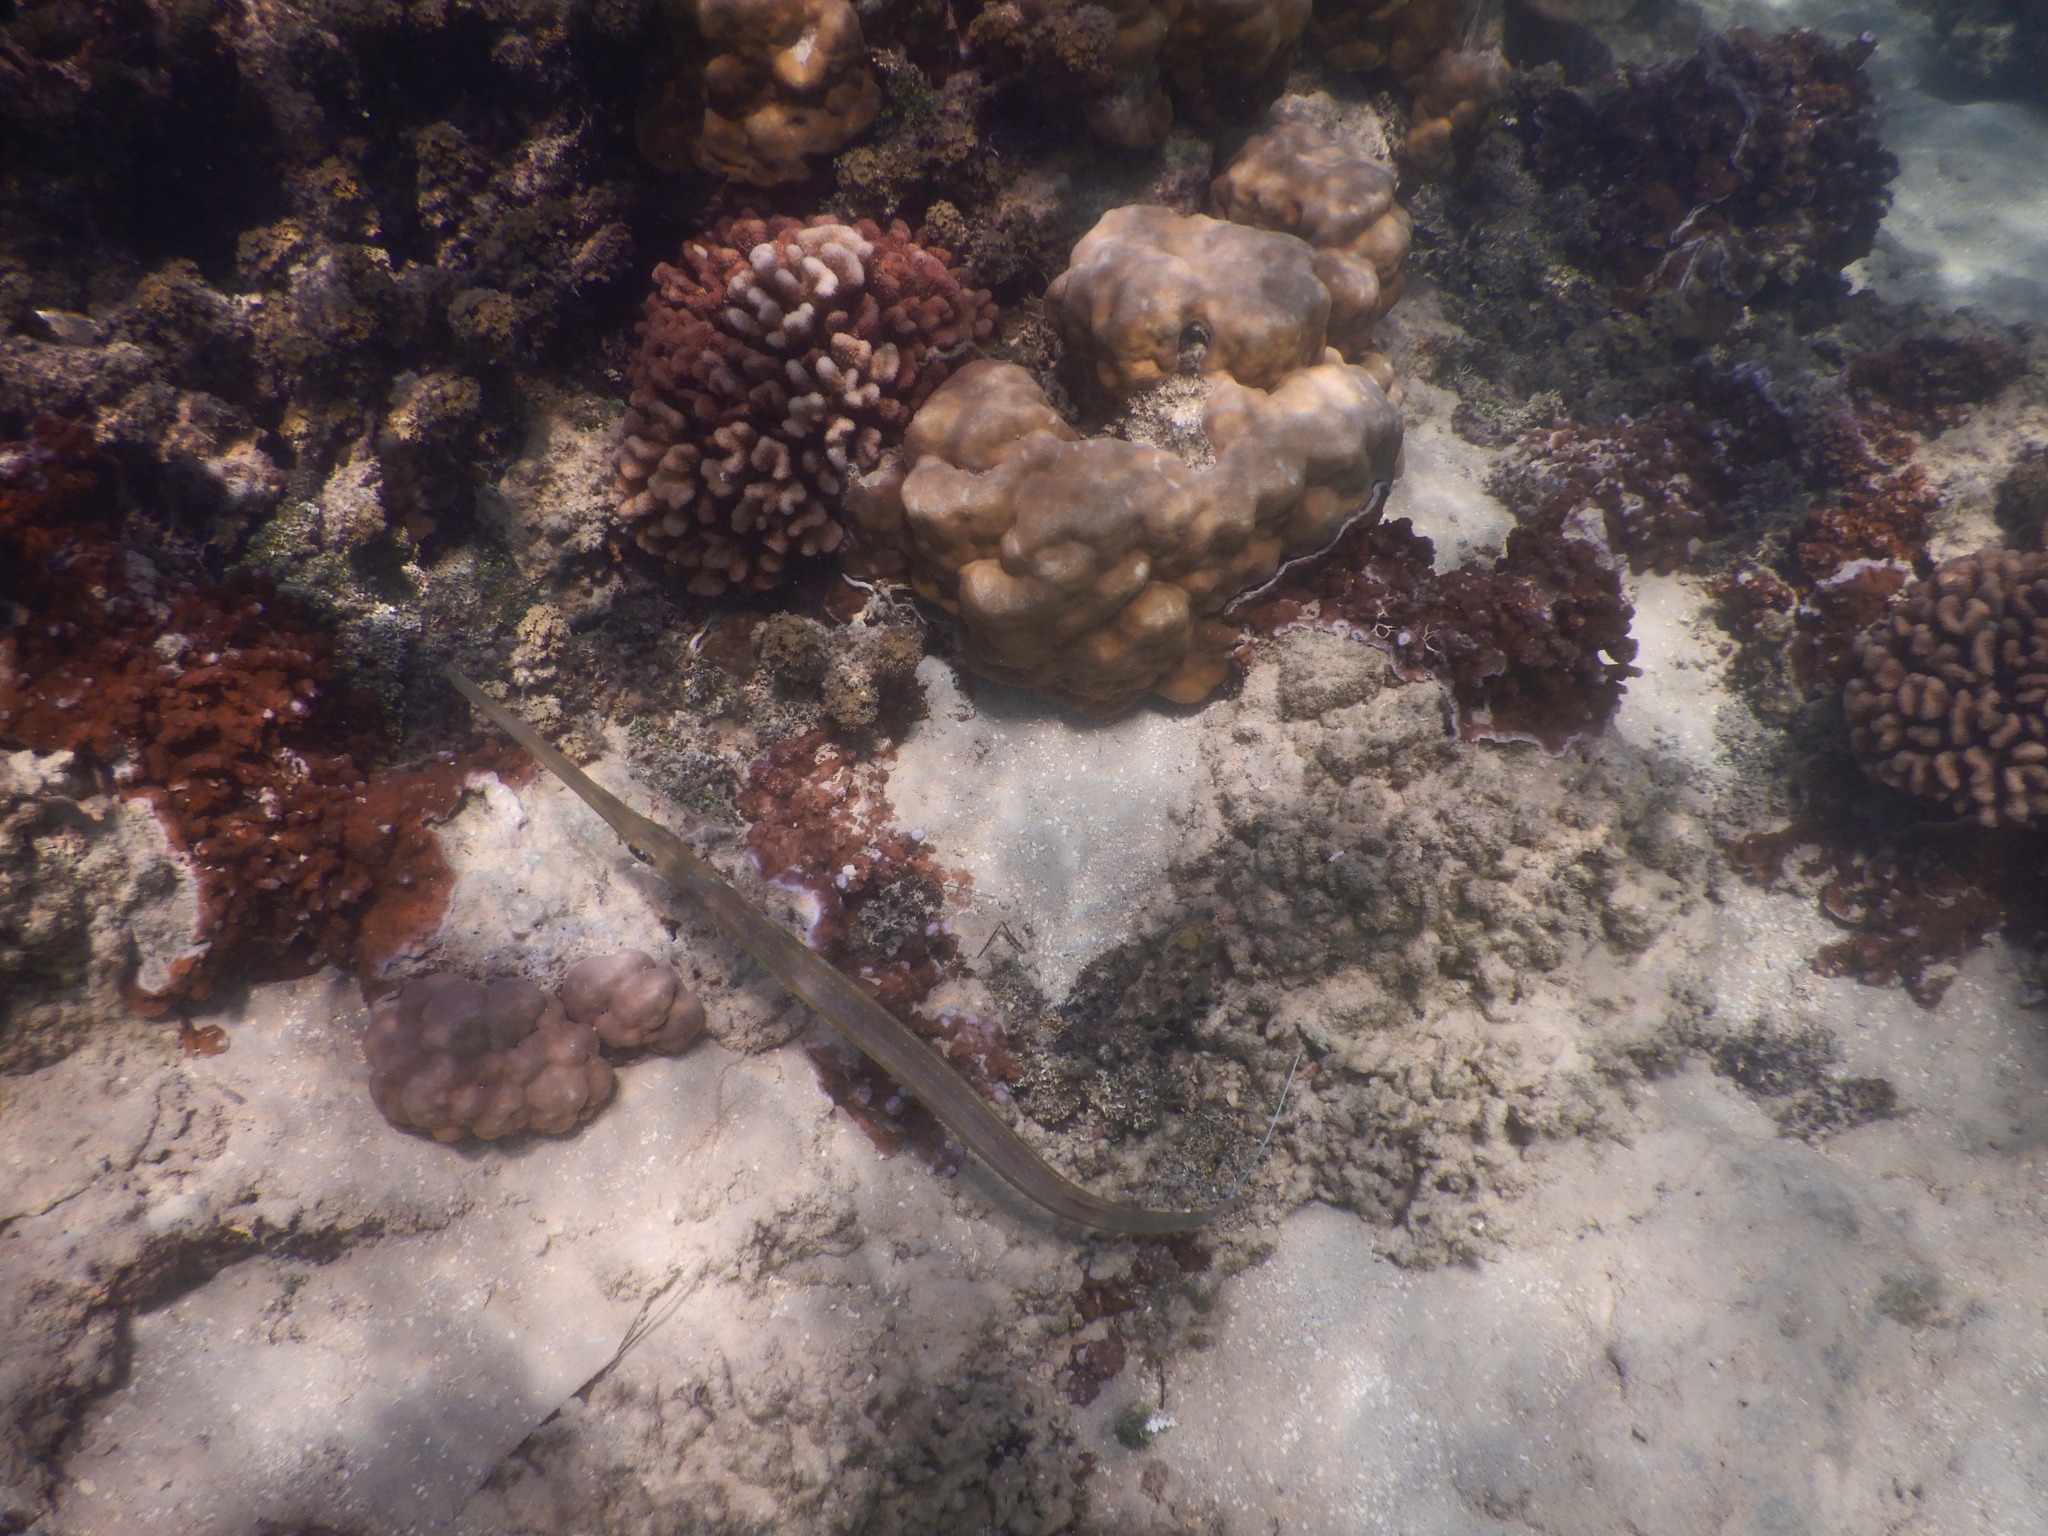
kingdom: Animalia
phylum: Chordata
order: Syngnathiformes
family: Fistulariidae
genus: Fistularia
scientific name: Fistularia commersonii
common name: Bluespotted cornetfish
